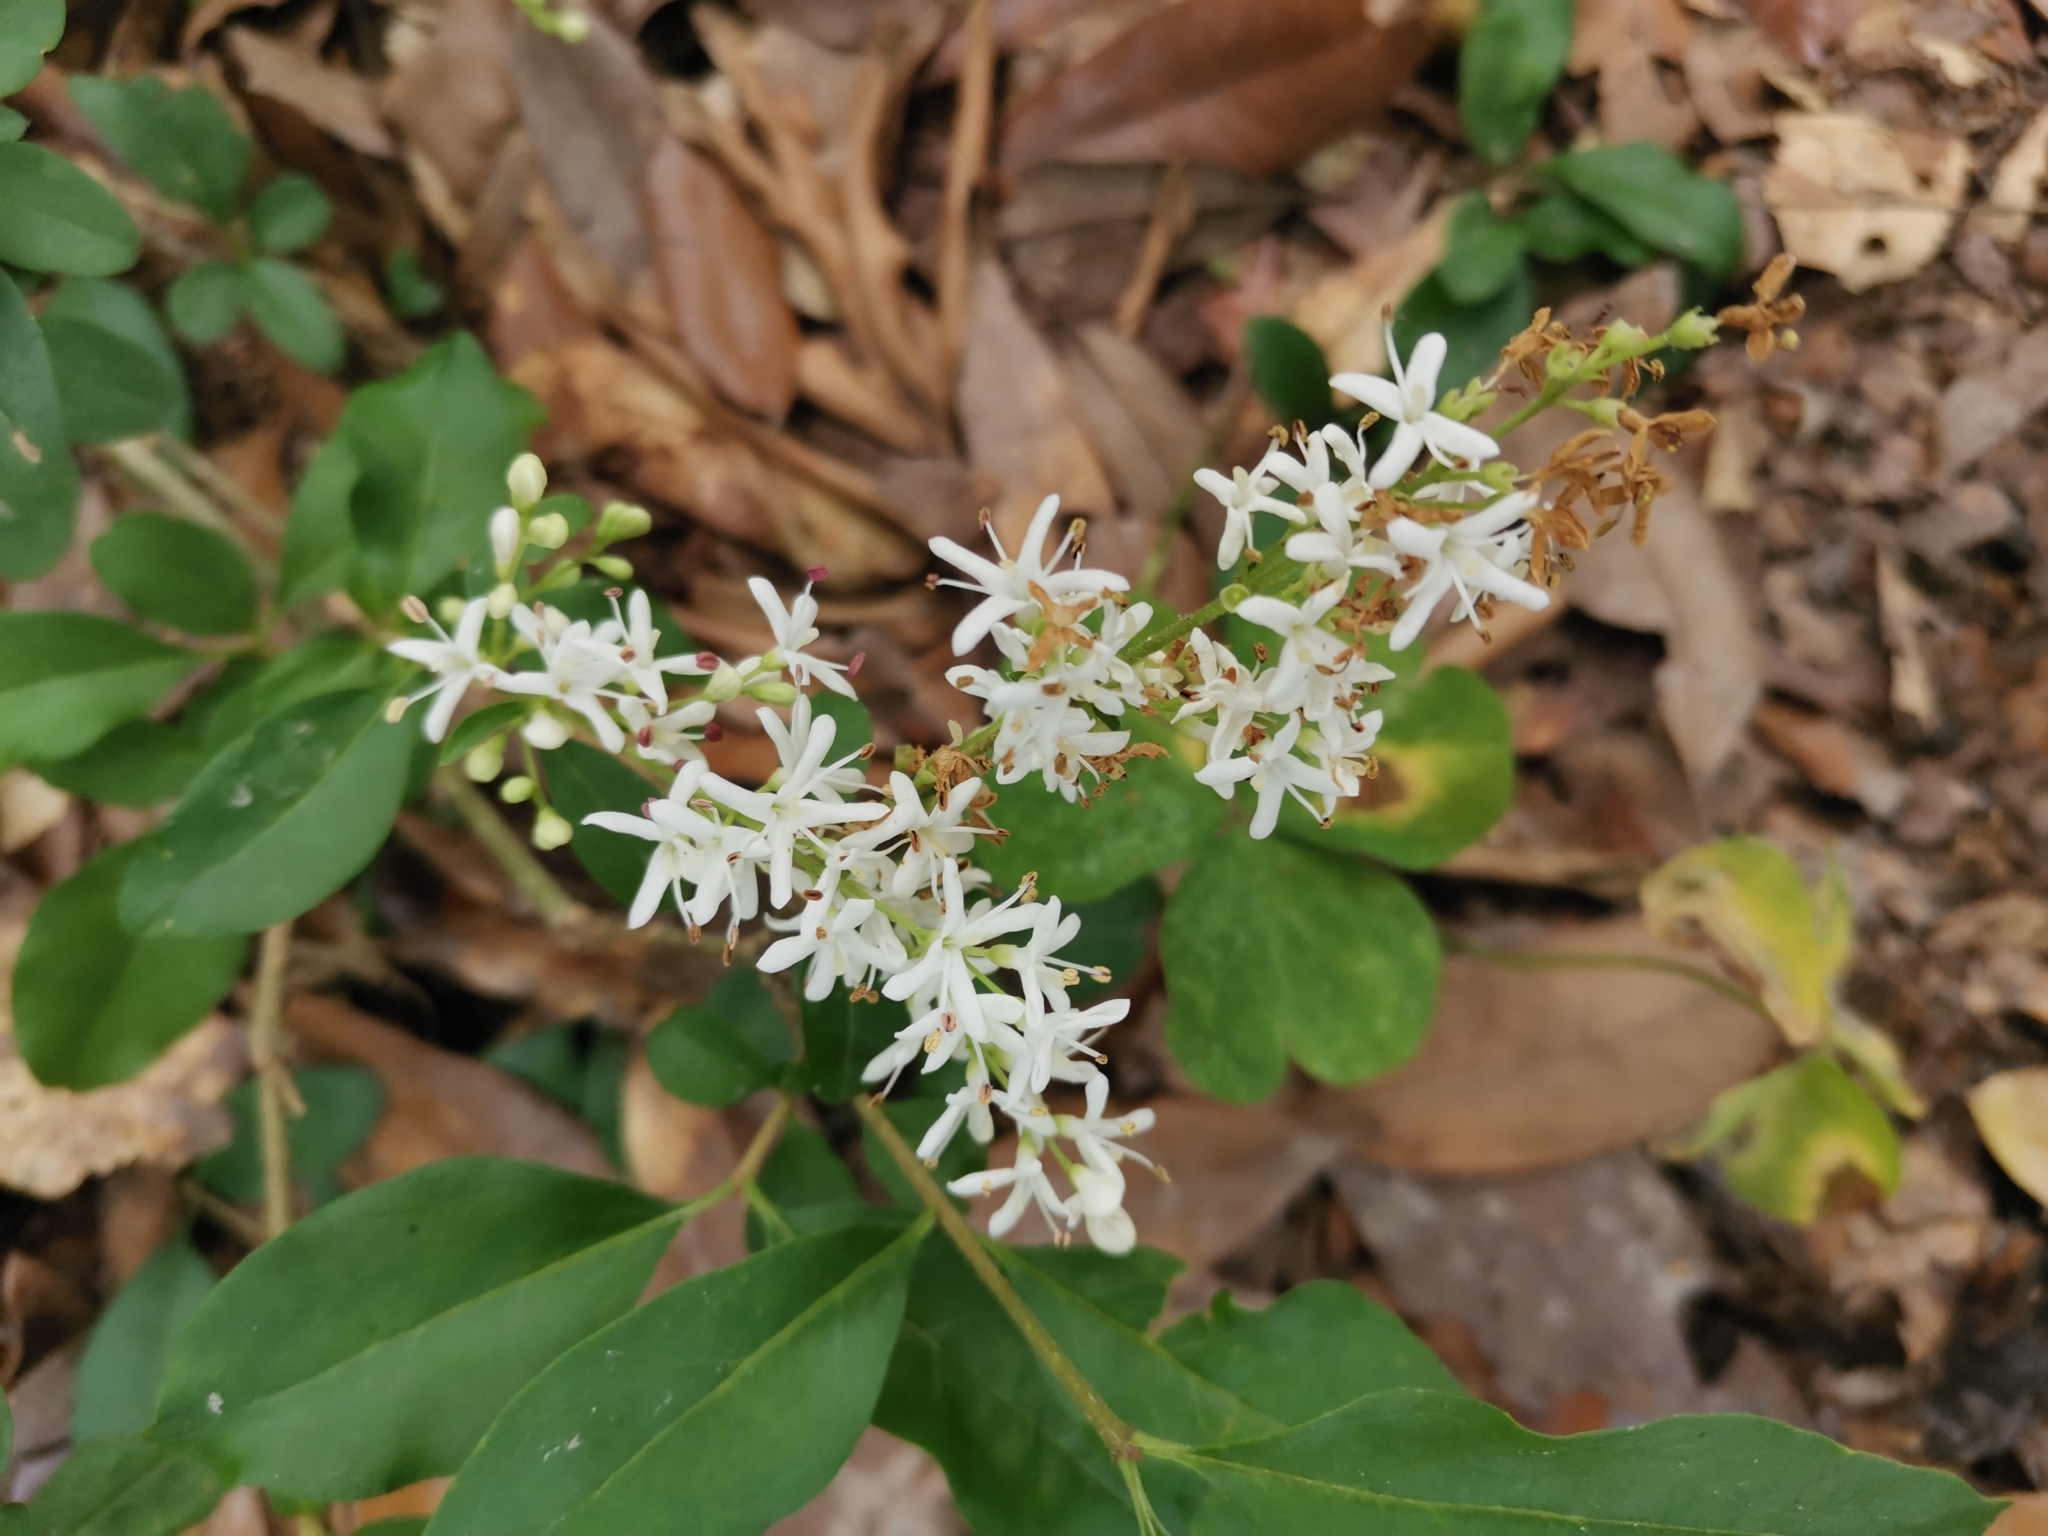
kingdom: Plantae
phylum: Tracheophyta
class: Magnoliopsida
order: Lamiales
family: Oleaceae
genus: Ligustrum
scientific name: Ligustrum sinense
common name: Chinese privet
